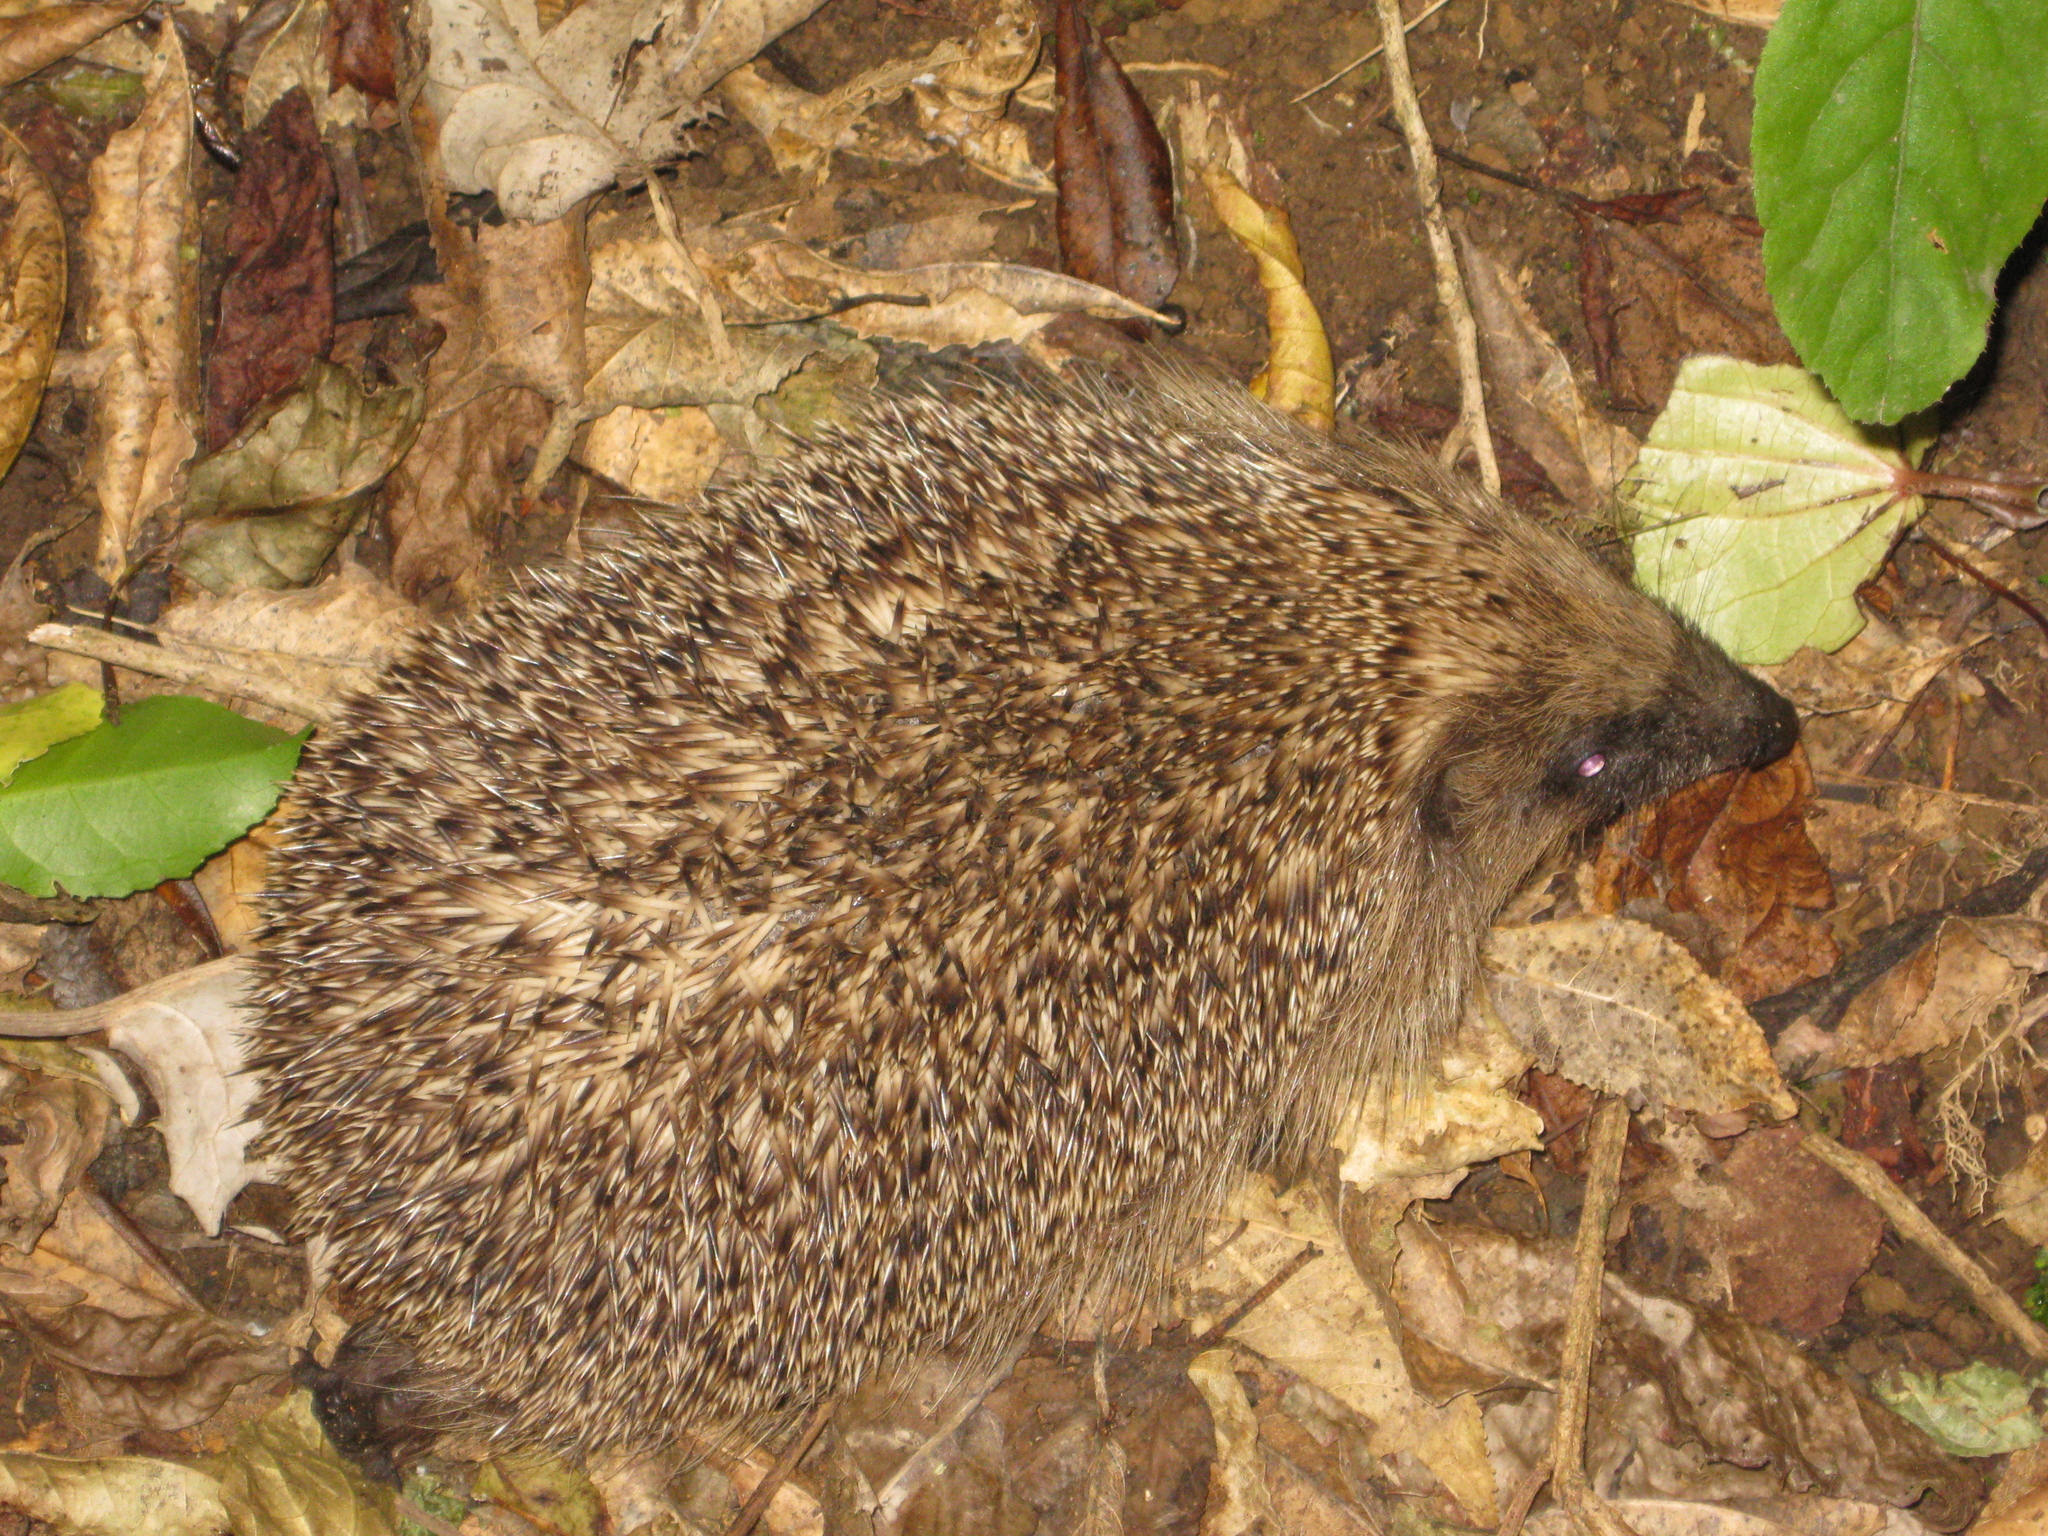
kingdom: Animalia
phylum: Chordata
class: Mammalia
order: Erinaceomorpha
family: Erinaceidae
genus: Erinaceus
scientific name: Erinaceus europaeus
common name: West european hedgehog
